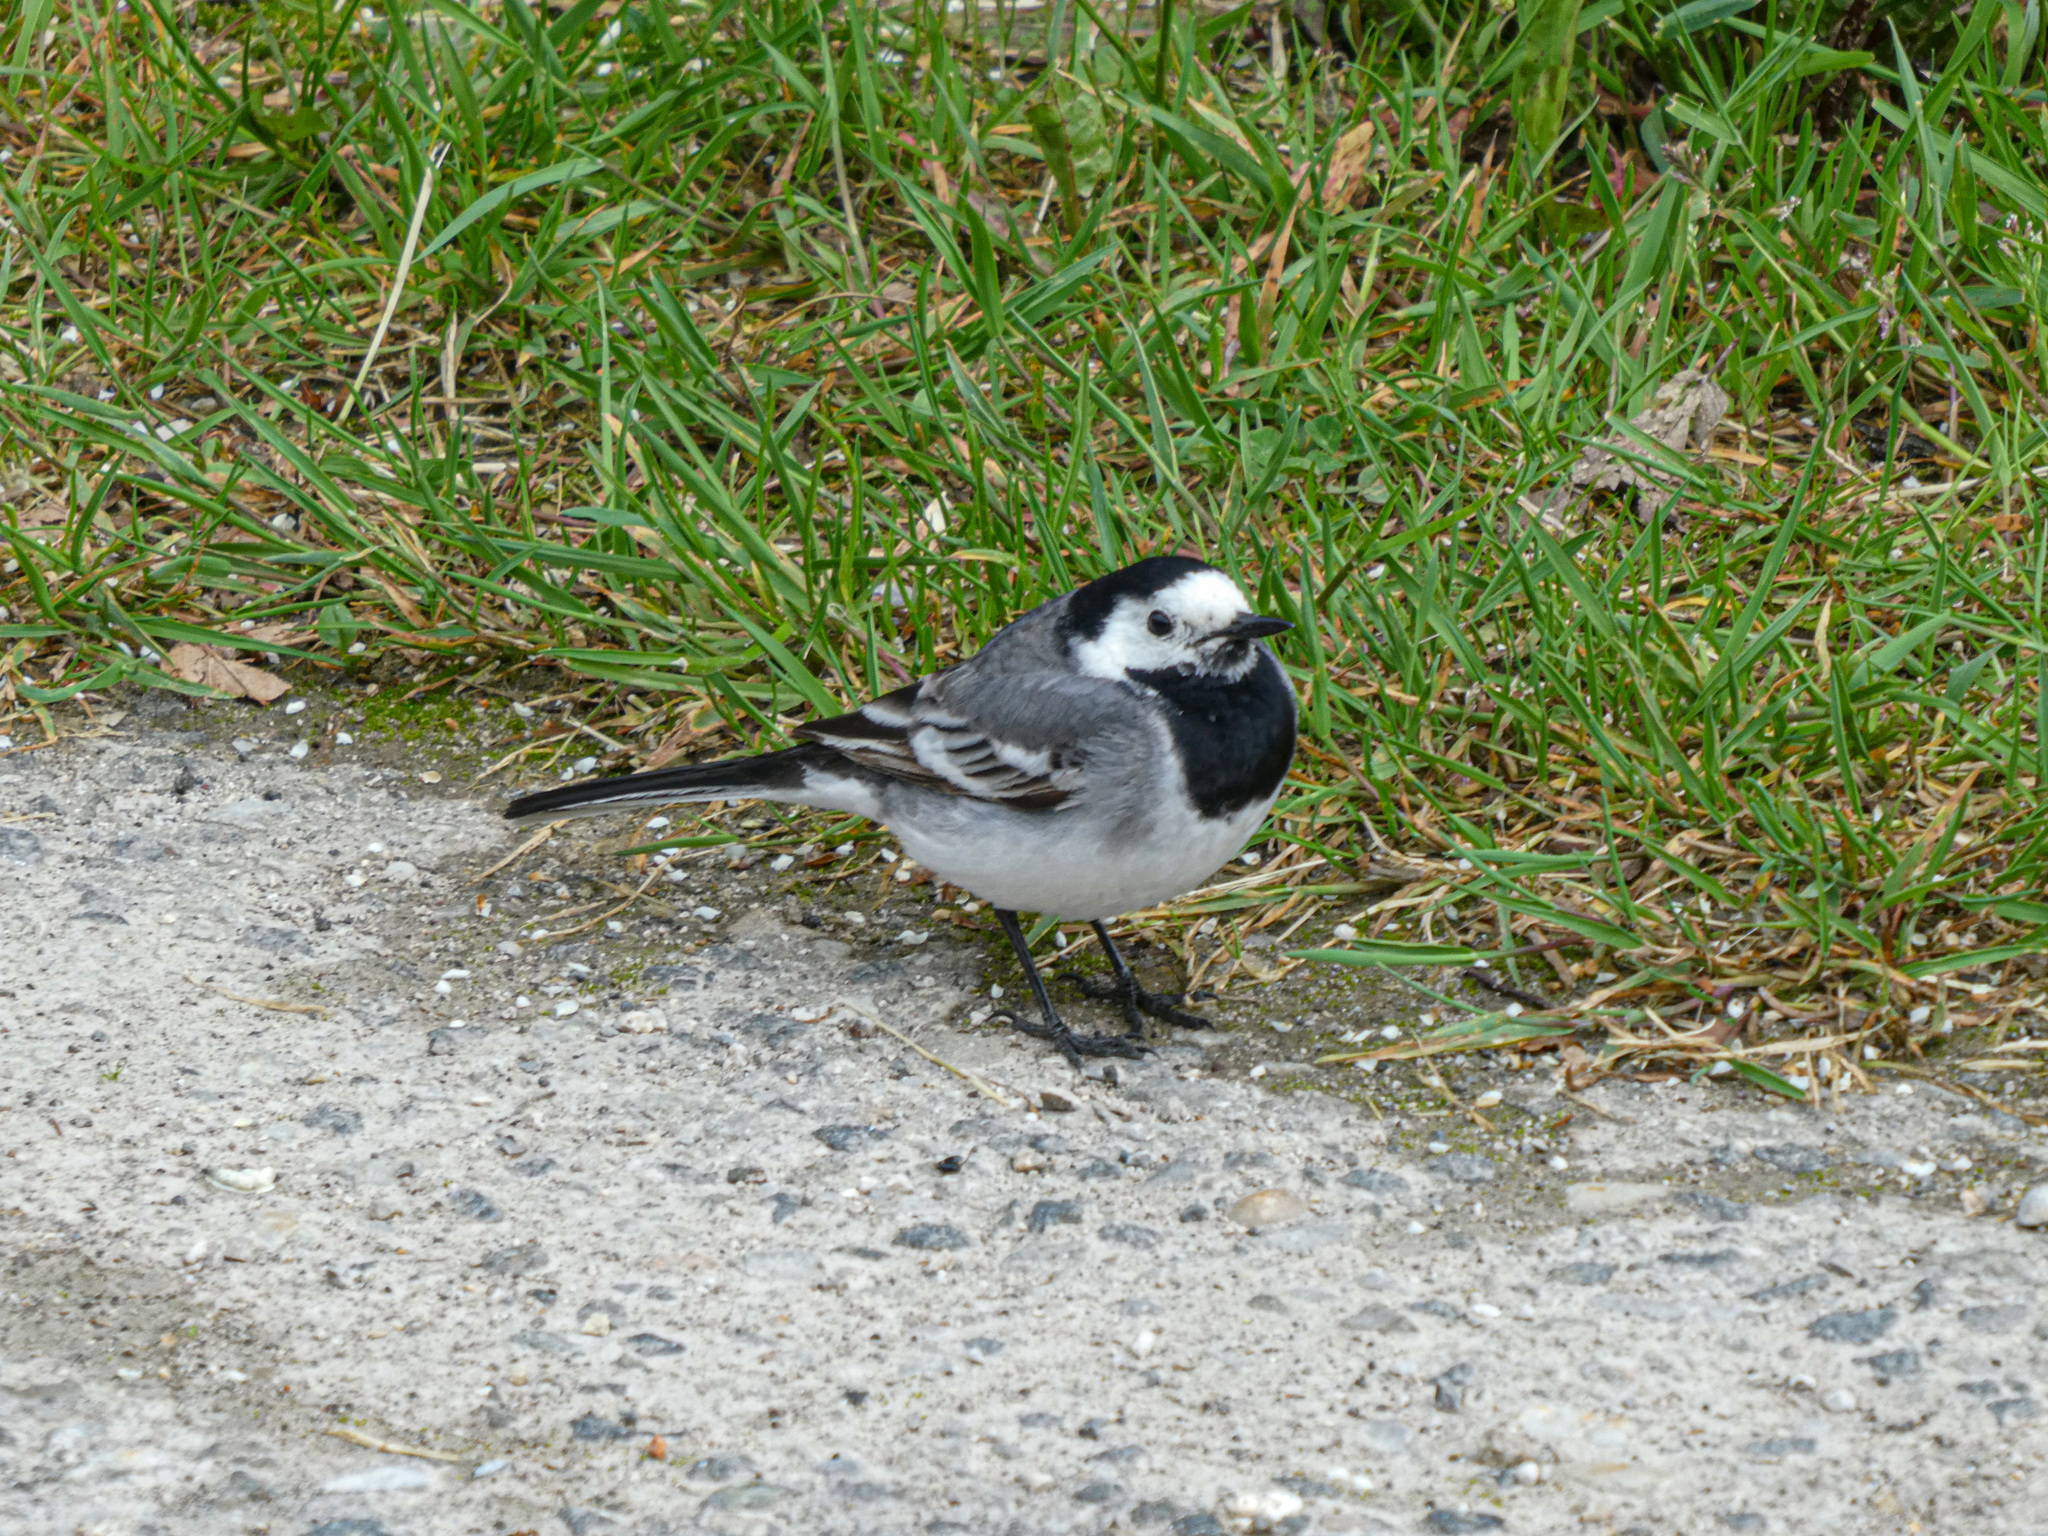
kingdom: Animalia
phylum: Chordata
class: Aves
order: Passeriformes
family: Motacillidae
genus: Motacilla
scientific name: Motacilla alba
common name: White wagtail
